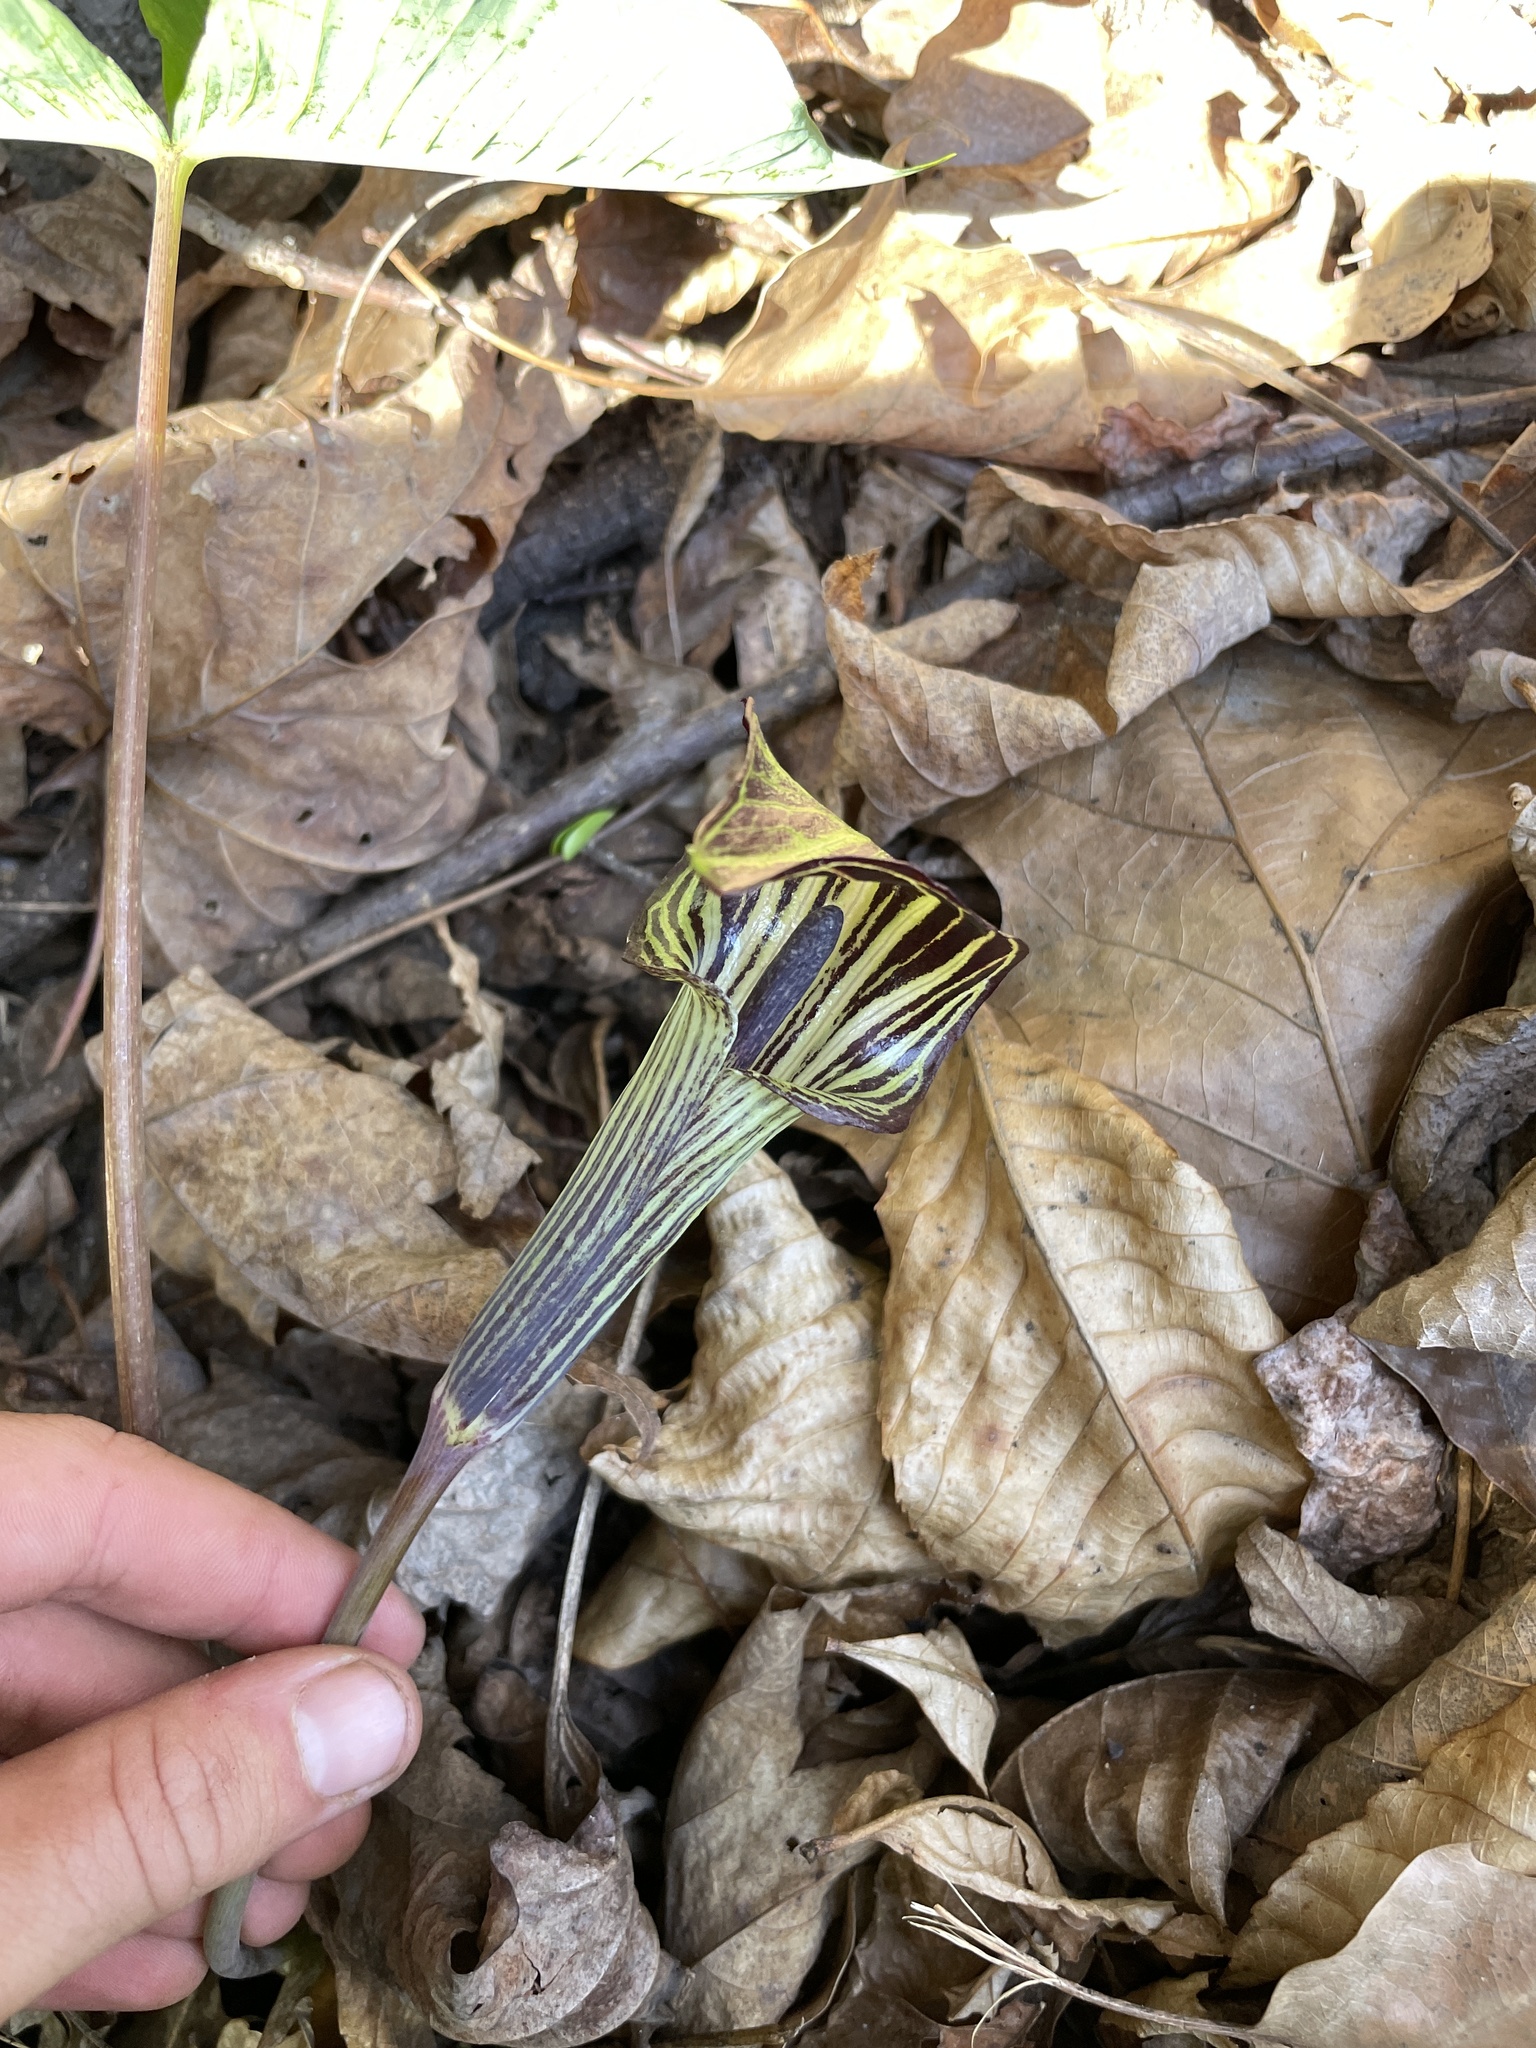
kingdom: Plantae
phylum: Tracheophyta
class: Liliopsida
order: Alismatales
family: Araceae
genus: Arisaema
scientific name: Arisaema triphyllum
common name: Jack-in-the-pulpit
